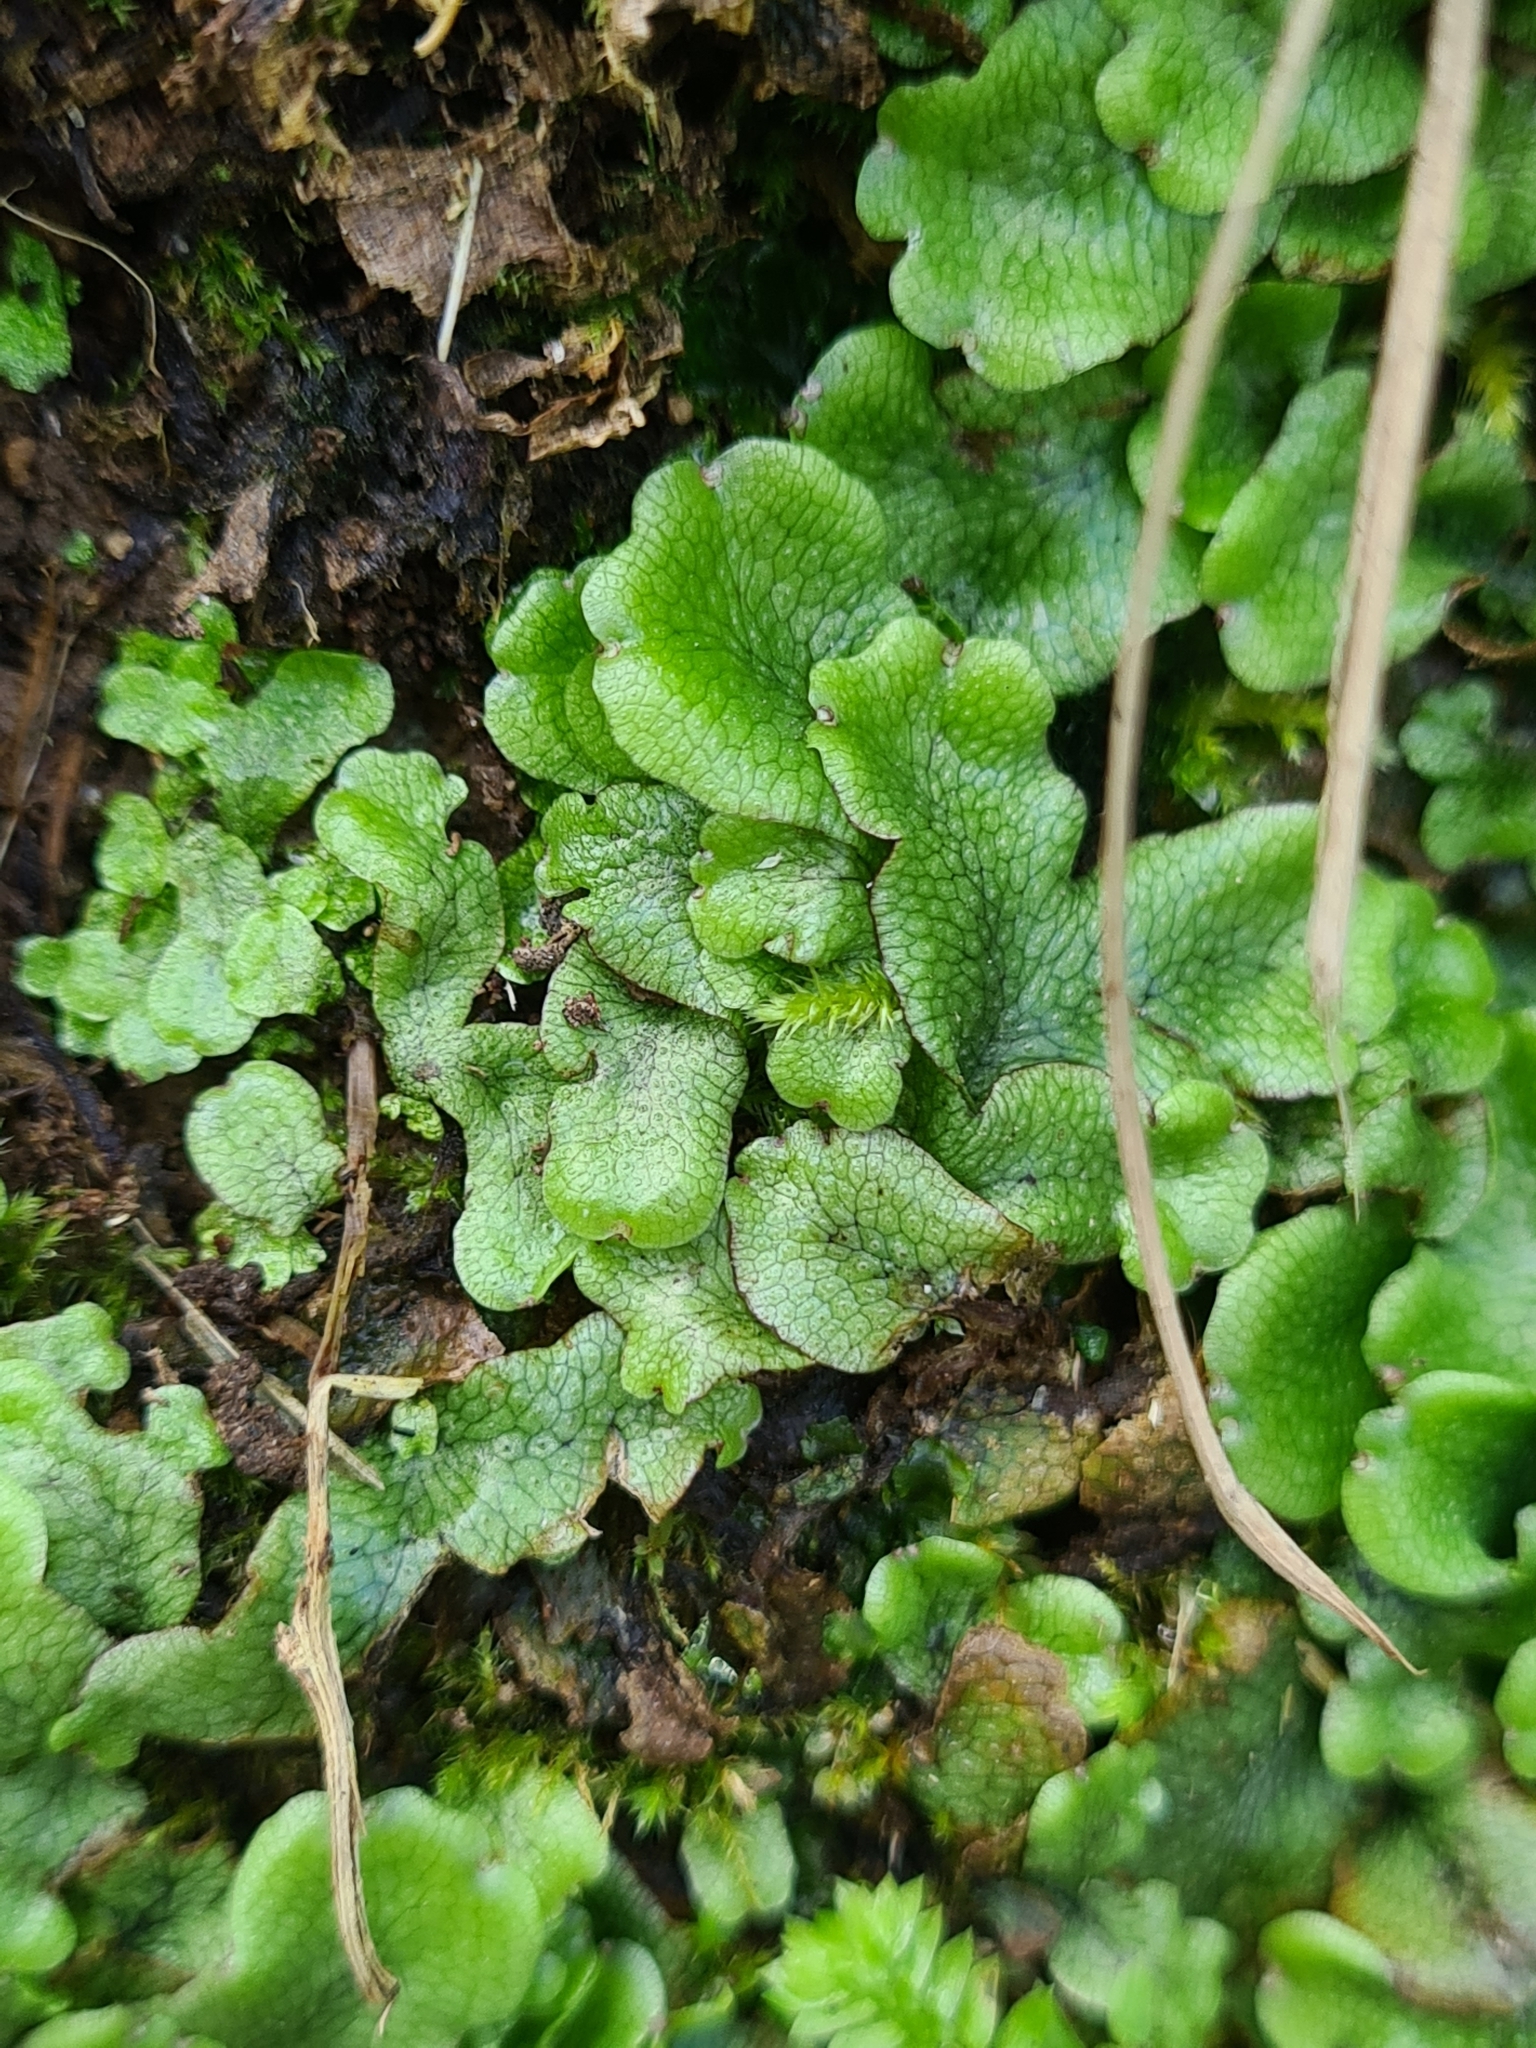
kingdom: Plantae
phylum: Marchantiophyta
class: Marchantiopsida
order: Marchantiales
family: Conocephalaceae
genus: Conocephalum
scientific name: Conocephalum conicum
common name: Great scented liverwort
